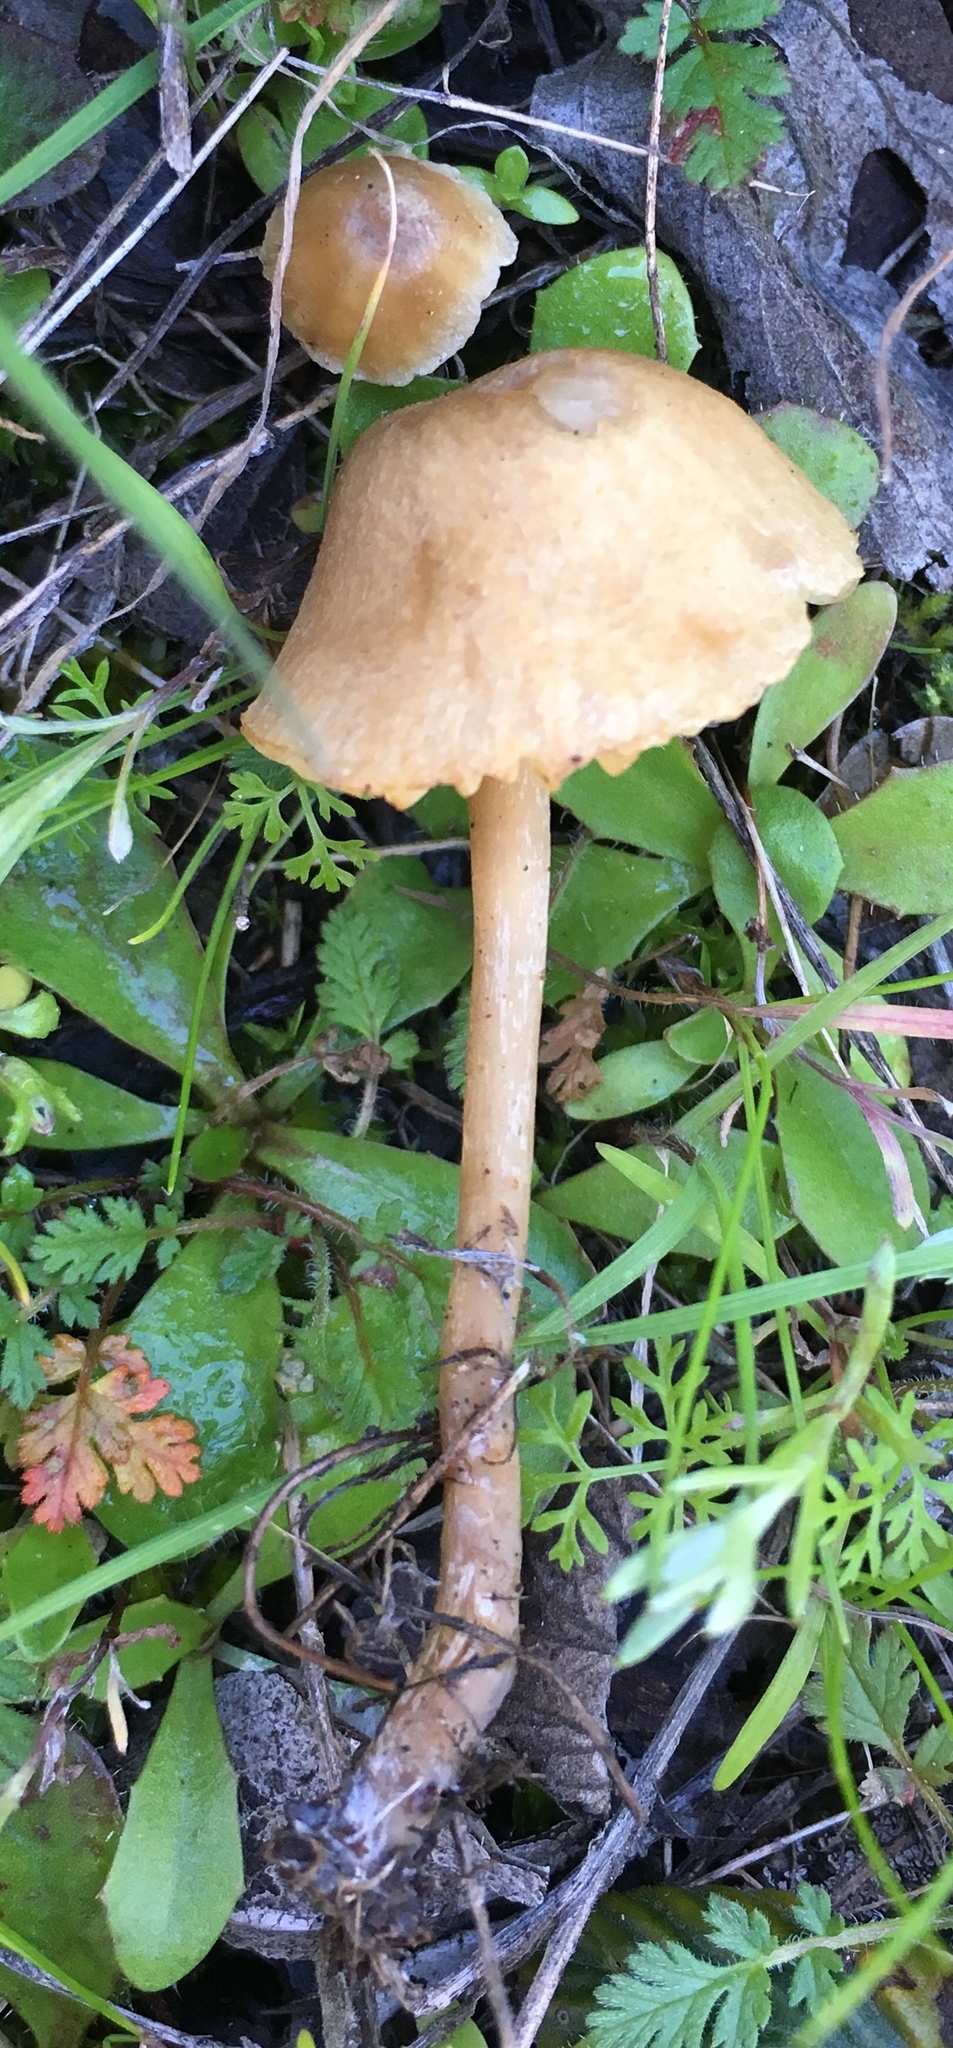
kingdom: Fungi
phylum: Basidiomycota
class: Agaricomycetes
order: Agaricales
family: Callistosporiaceae
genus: Pseudolaccaria
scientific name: Pseudolaccaria pachyphylla
